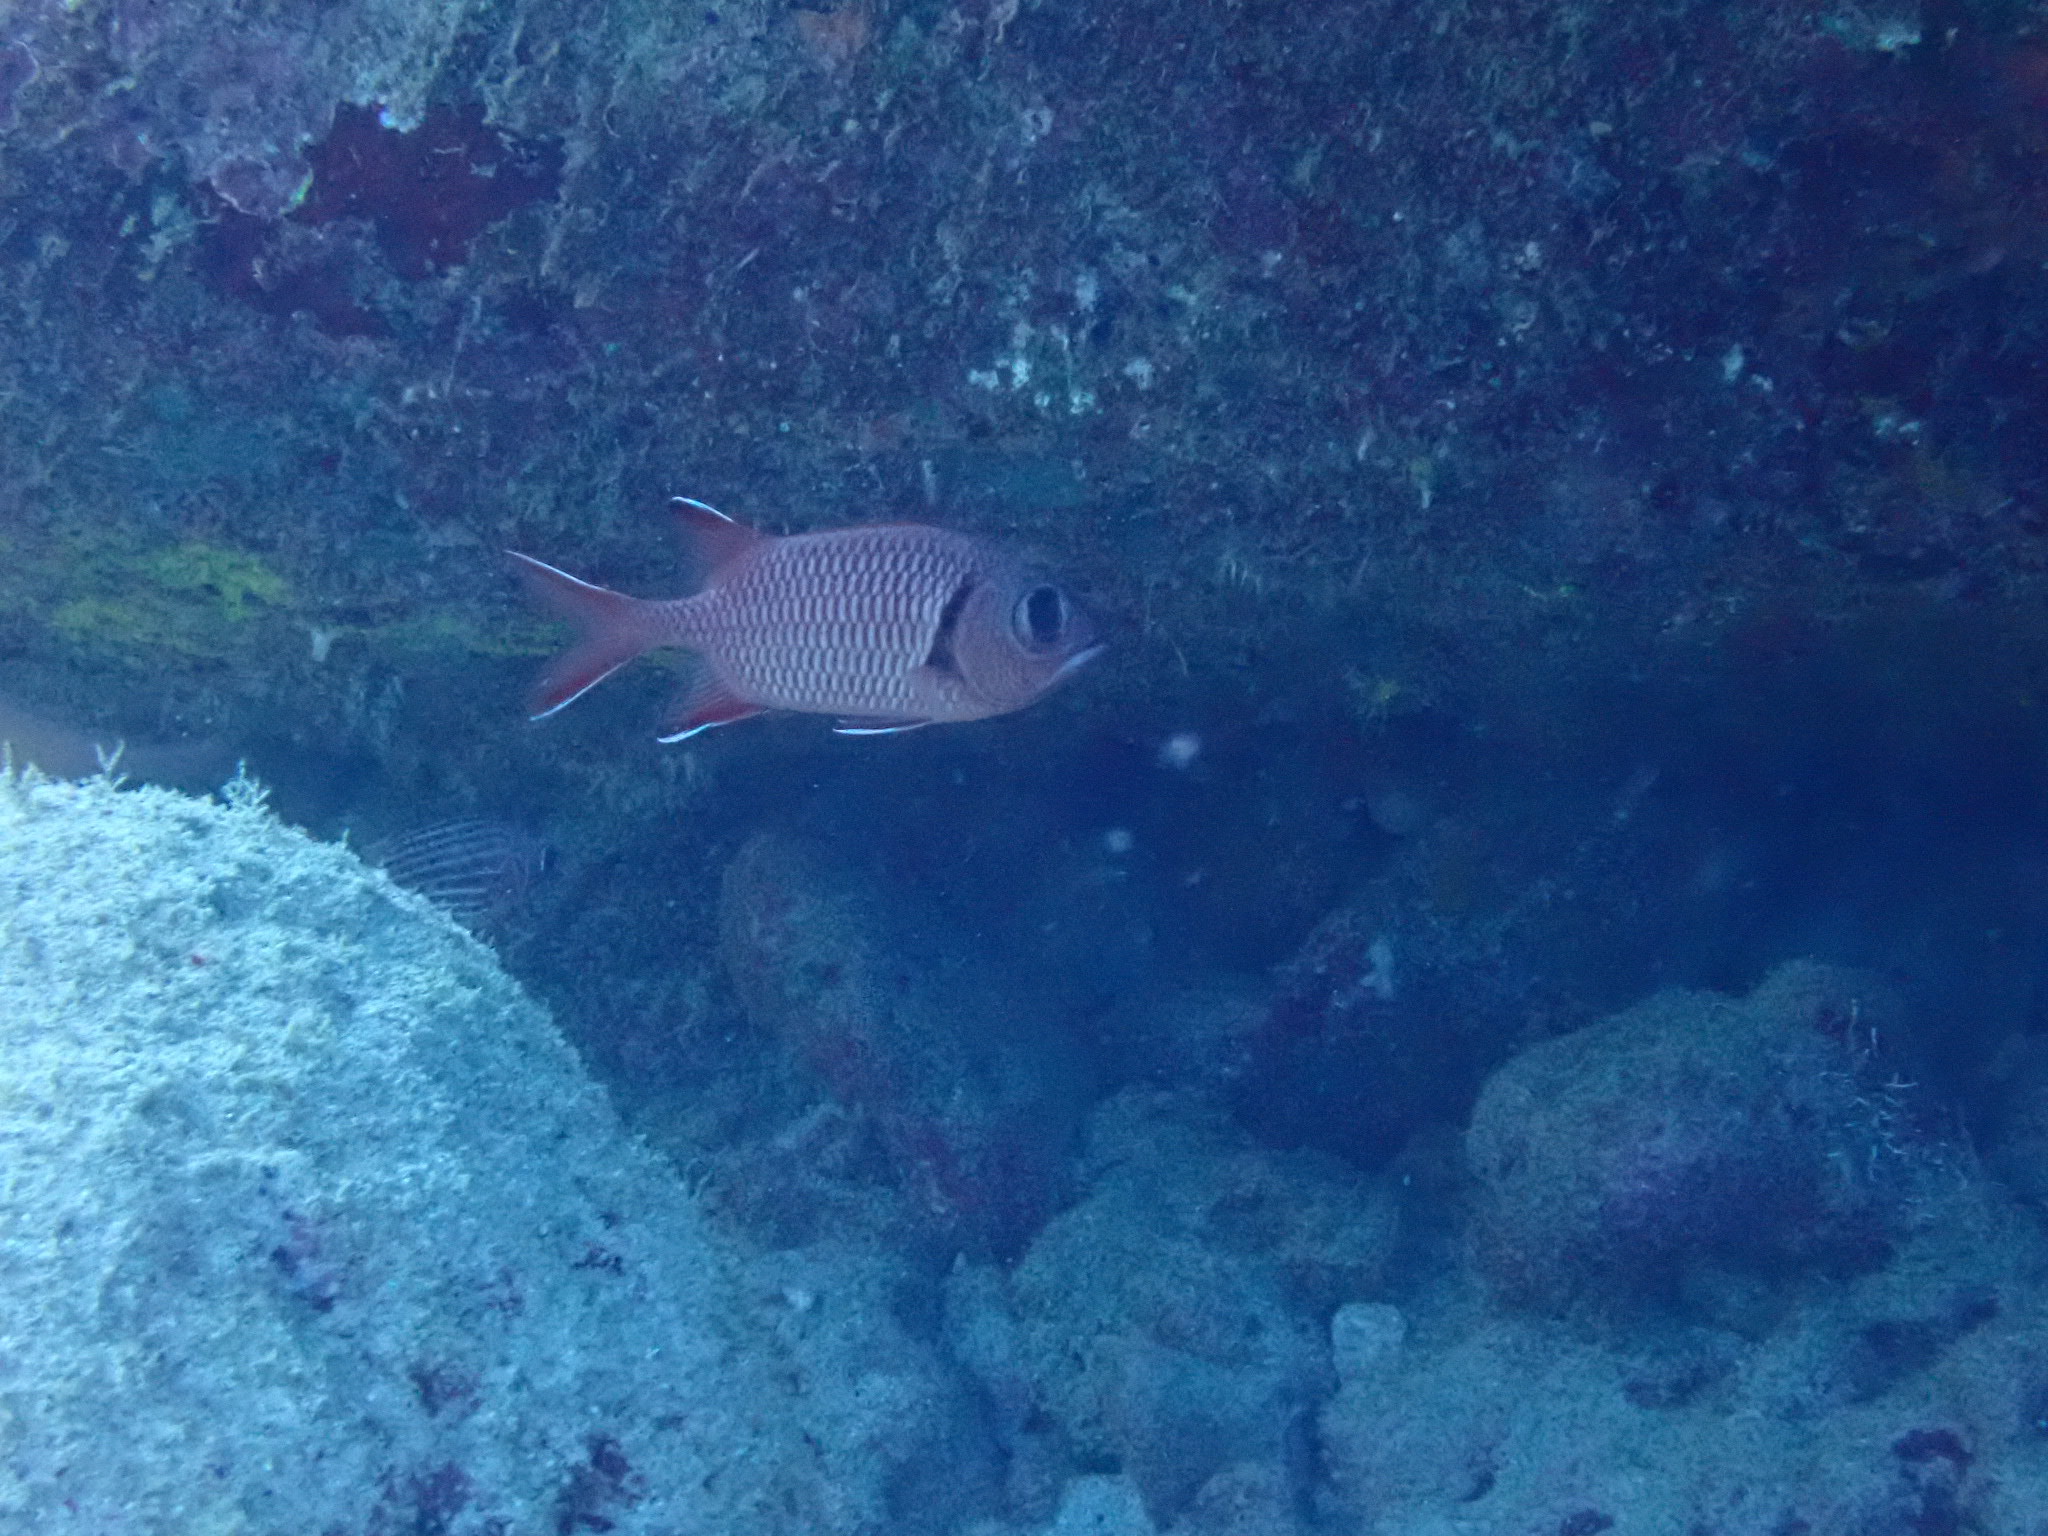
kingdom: Animalia
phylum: Chordata
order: Beryciformes
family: Holocentridae
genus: Myripristis
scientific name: Myripristis botche
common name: Blacktip soldierfish
